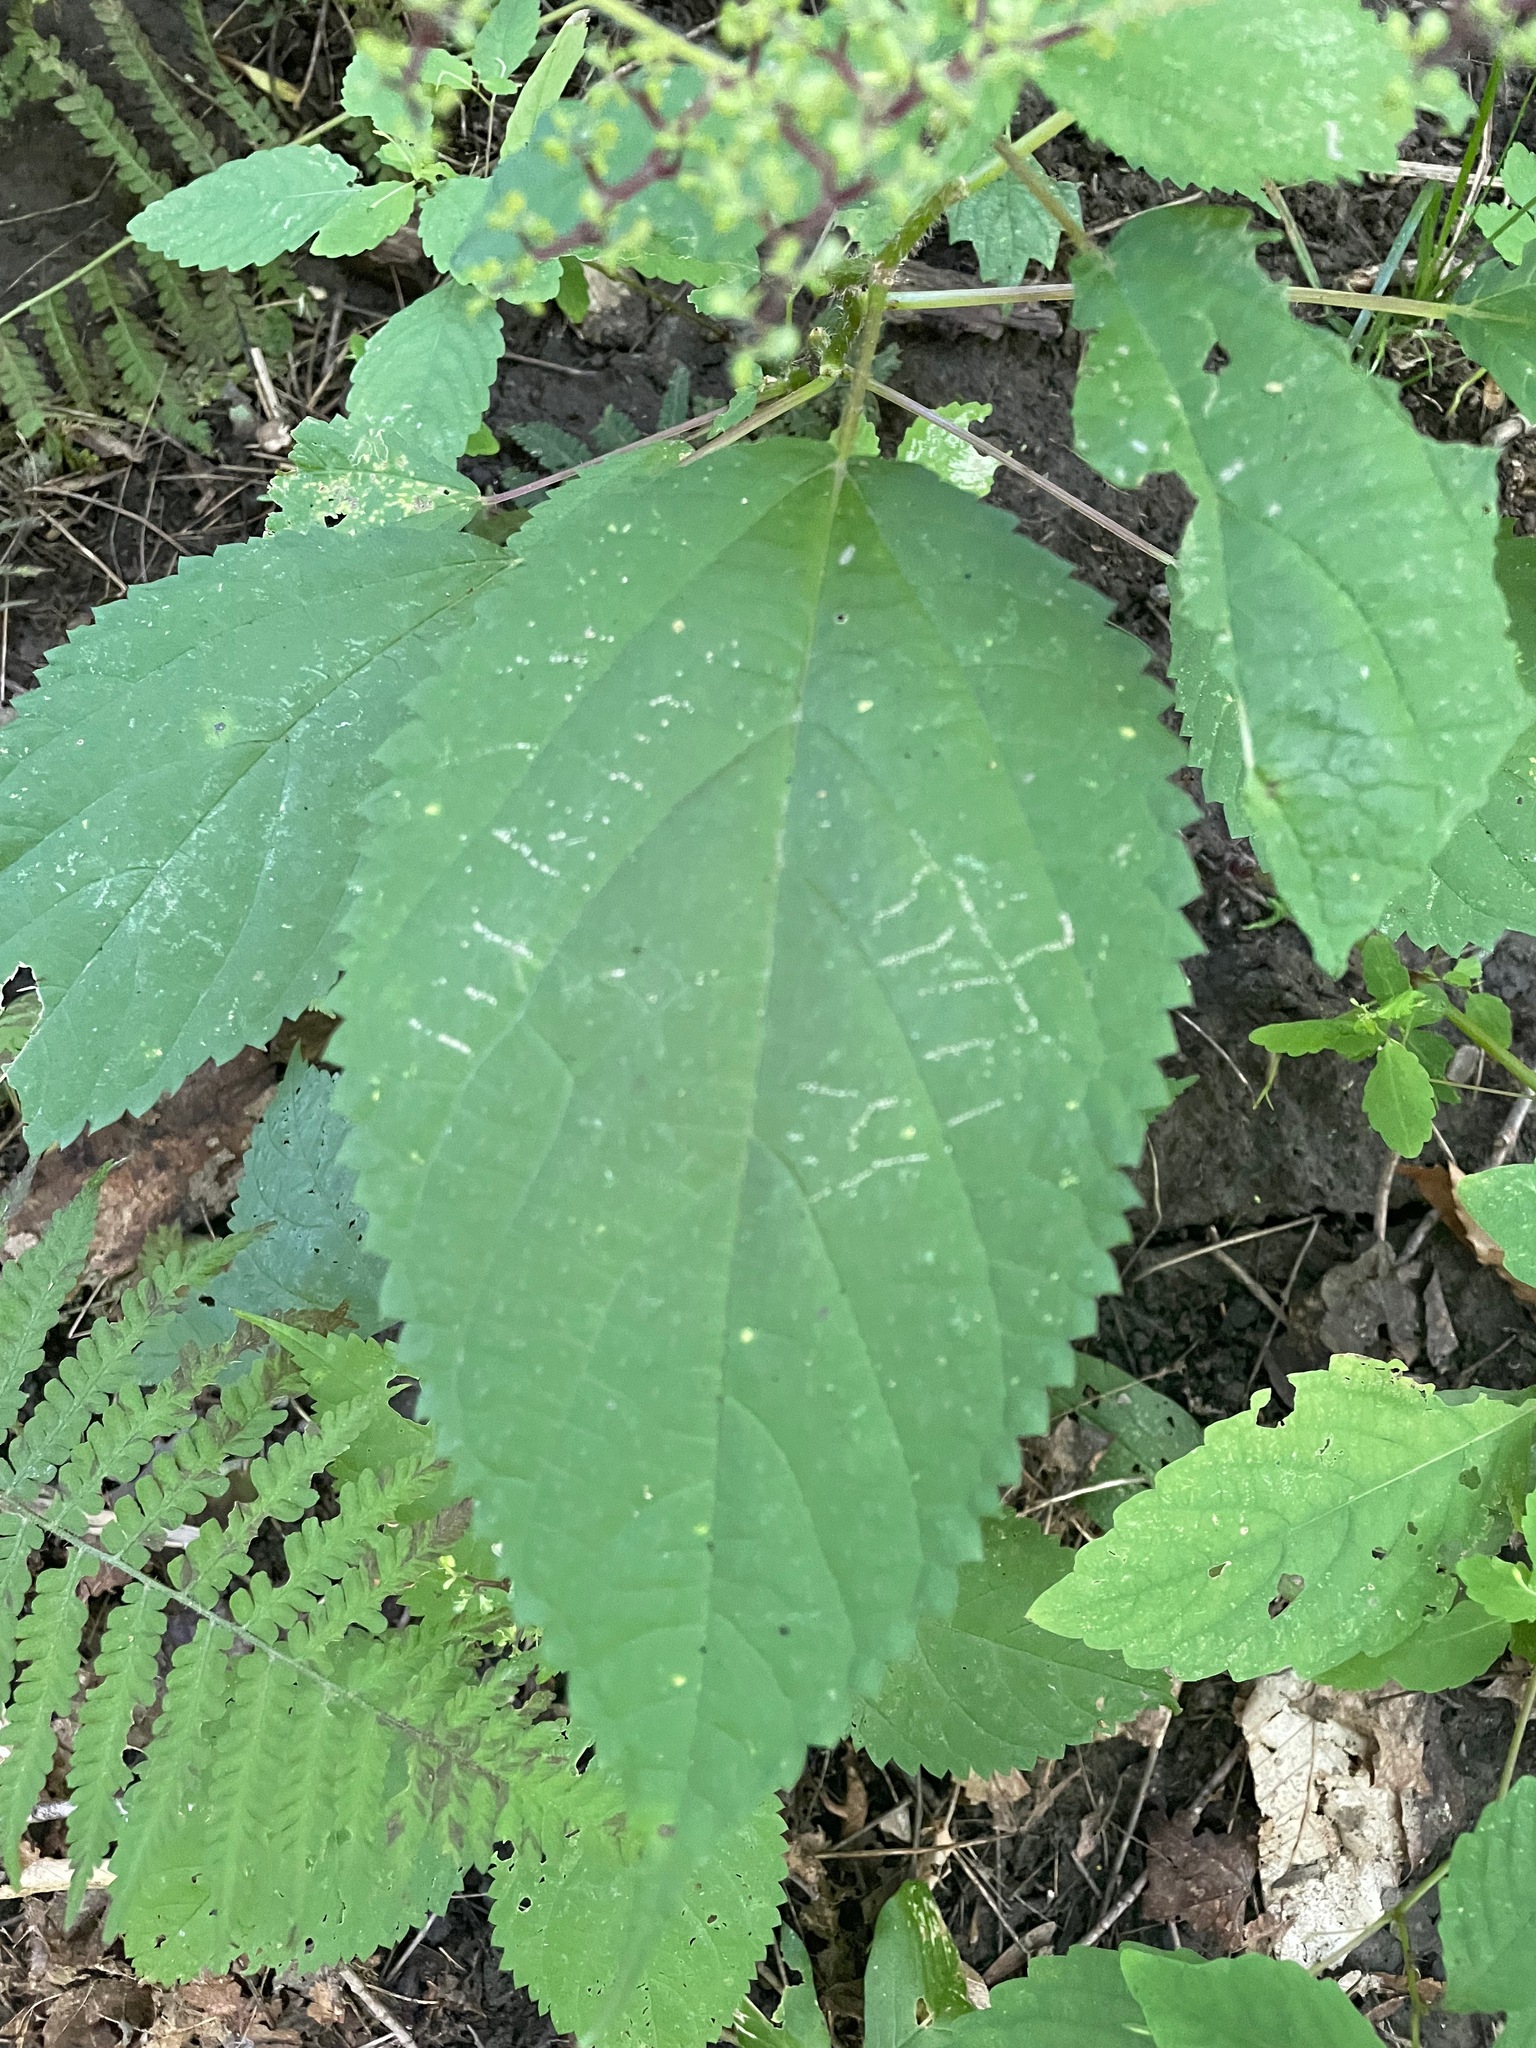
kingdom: Plantae
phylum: Tracheophyta
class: Magnoliopsida
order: Rosales
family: Urticaceae
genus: Laportea
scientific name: Laportea canadensis
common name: Canada nettle
